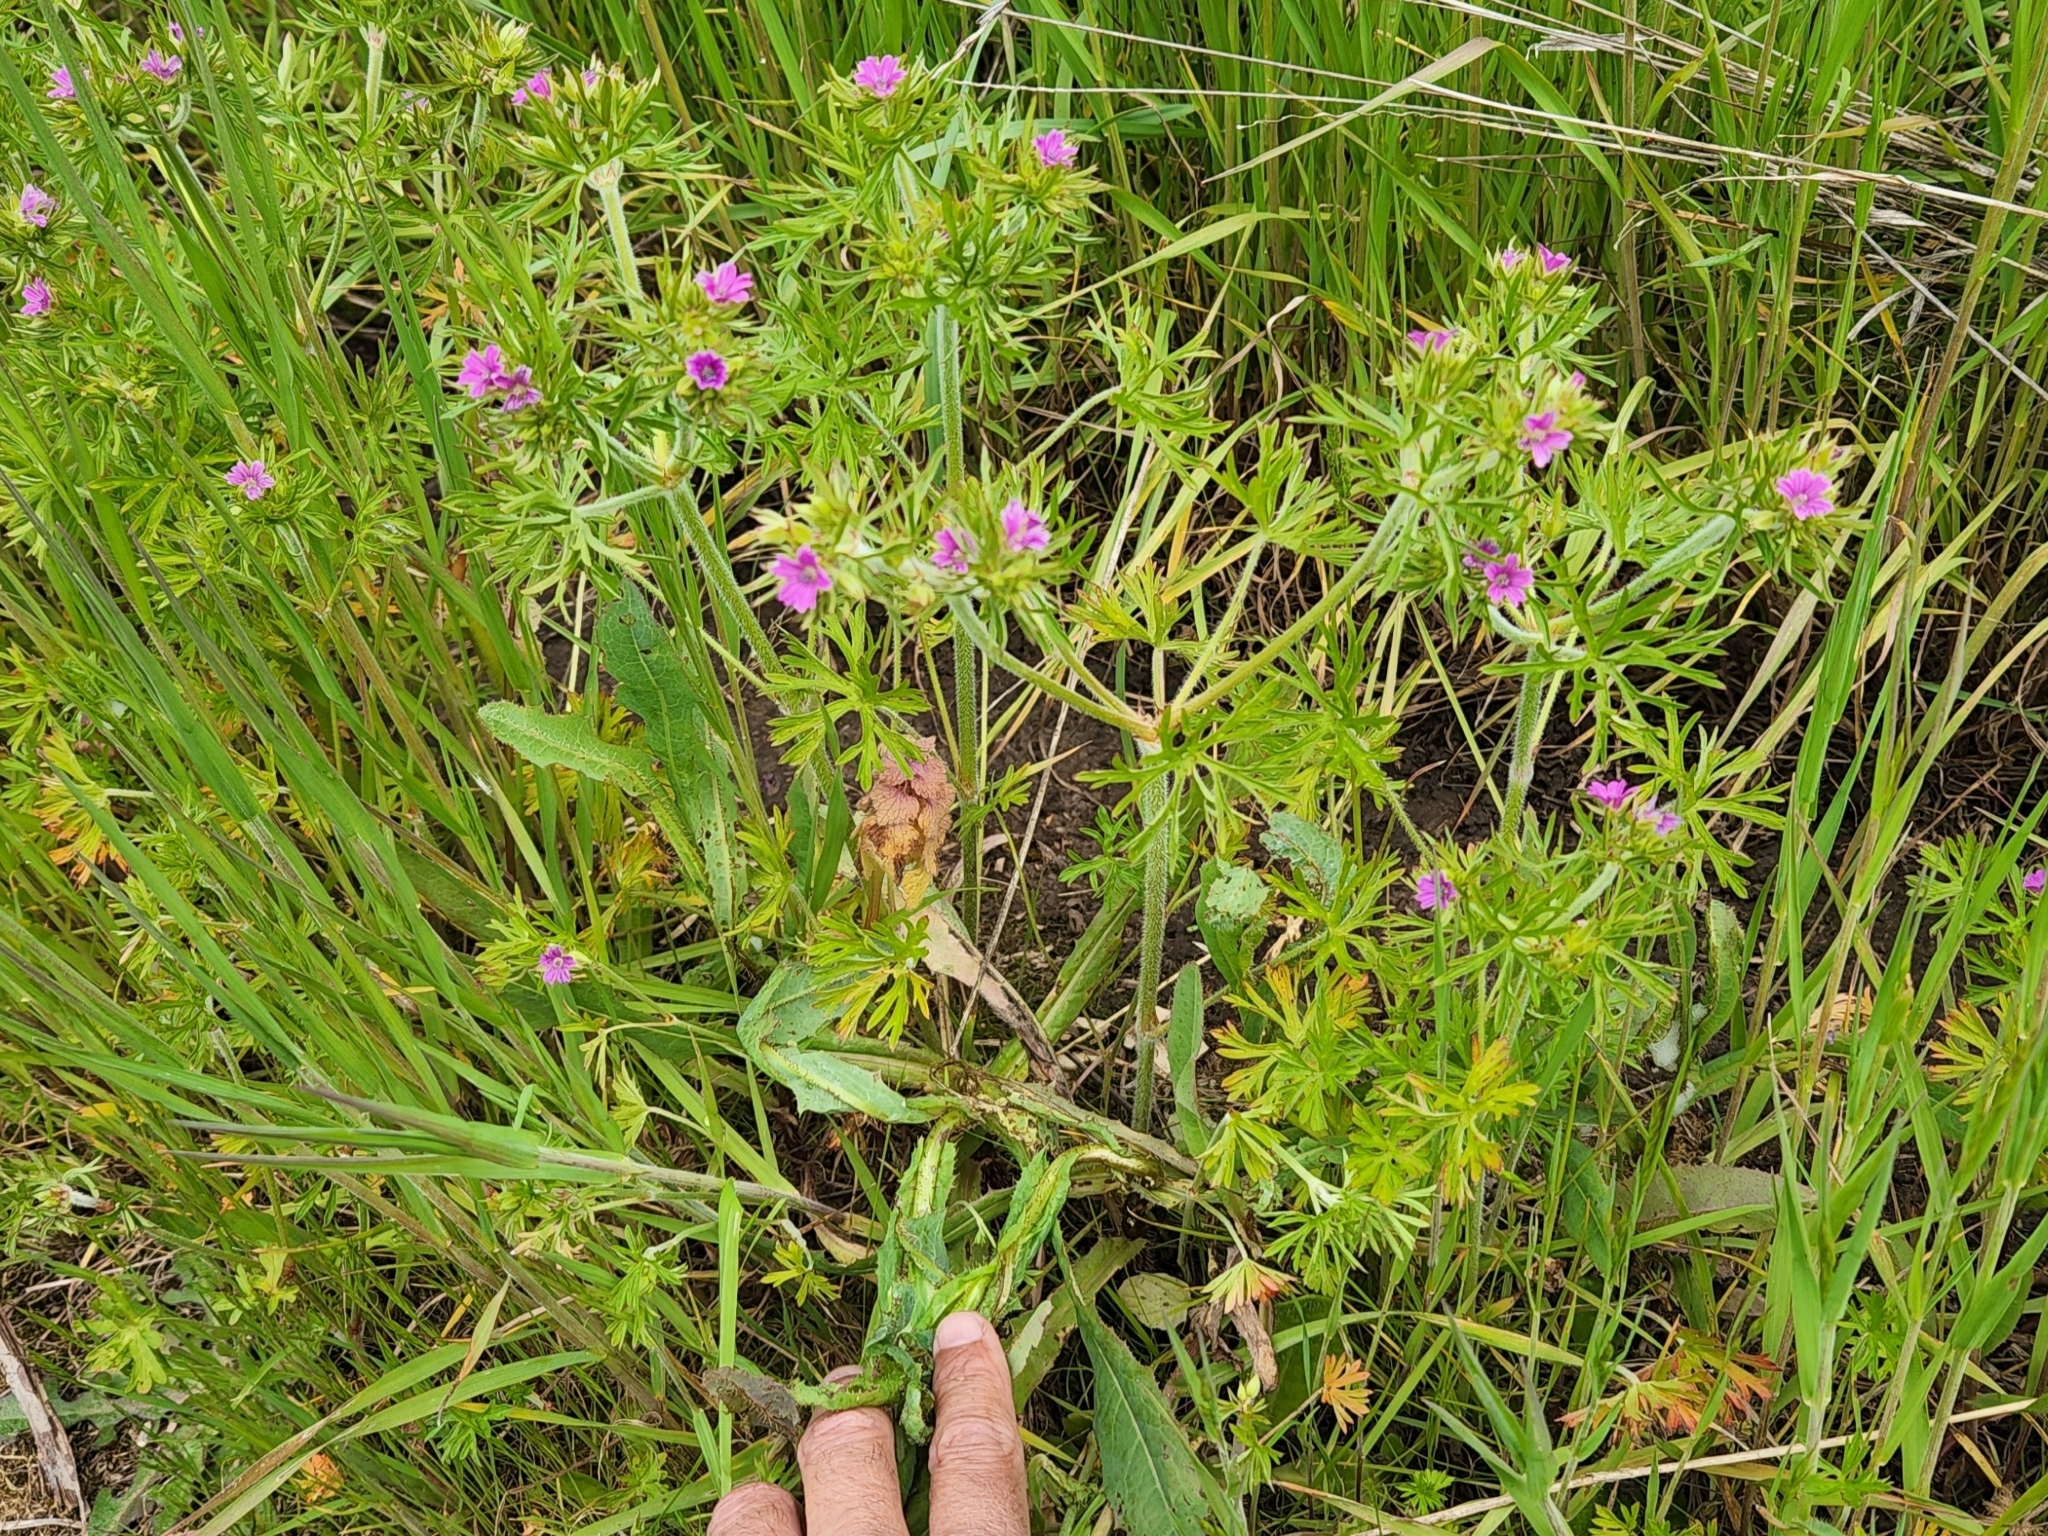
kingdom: Plantae
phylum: Tracheophyta
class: Magnoliopsida
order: Geraniales
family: Geraniaceae
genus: Geranium
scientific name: Geranium dissectum
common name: Cut-leaved crane's-bill
